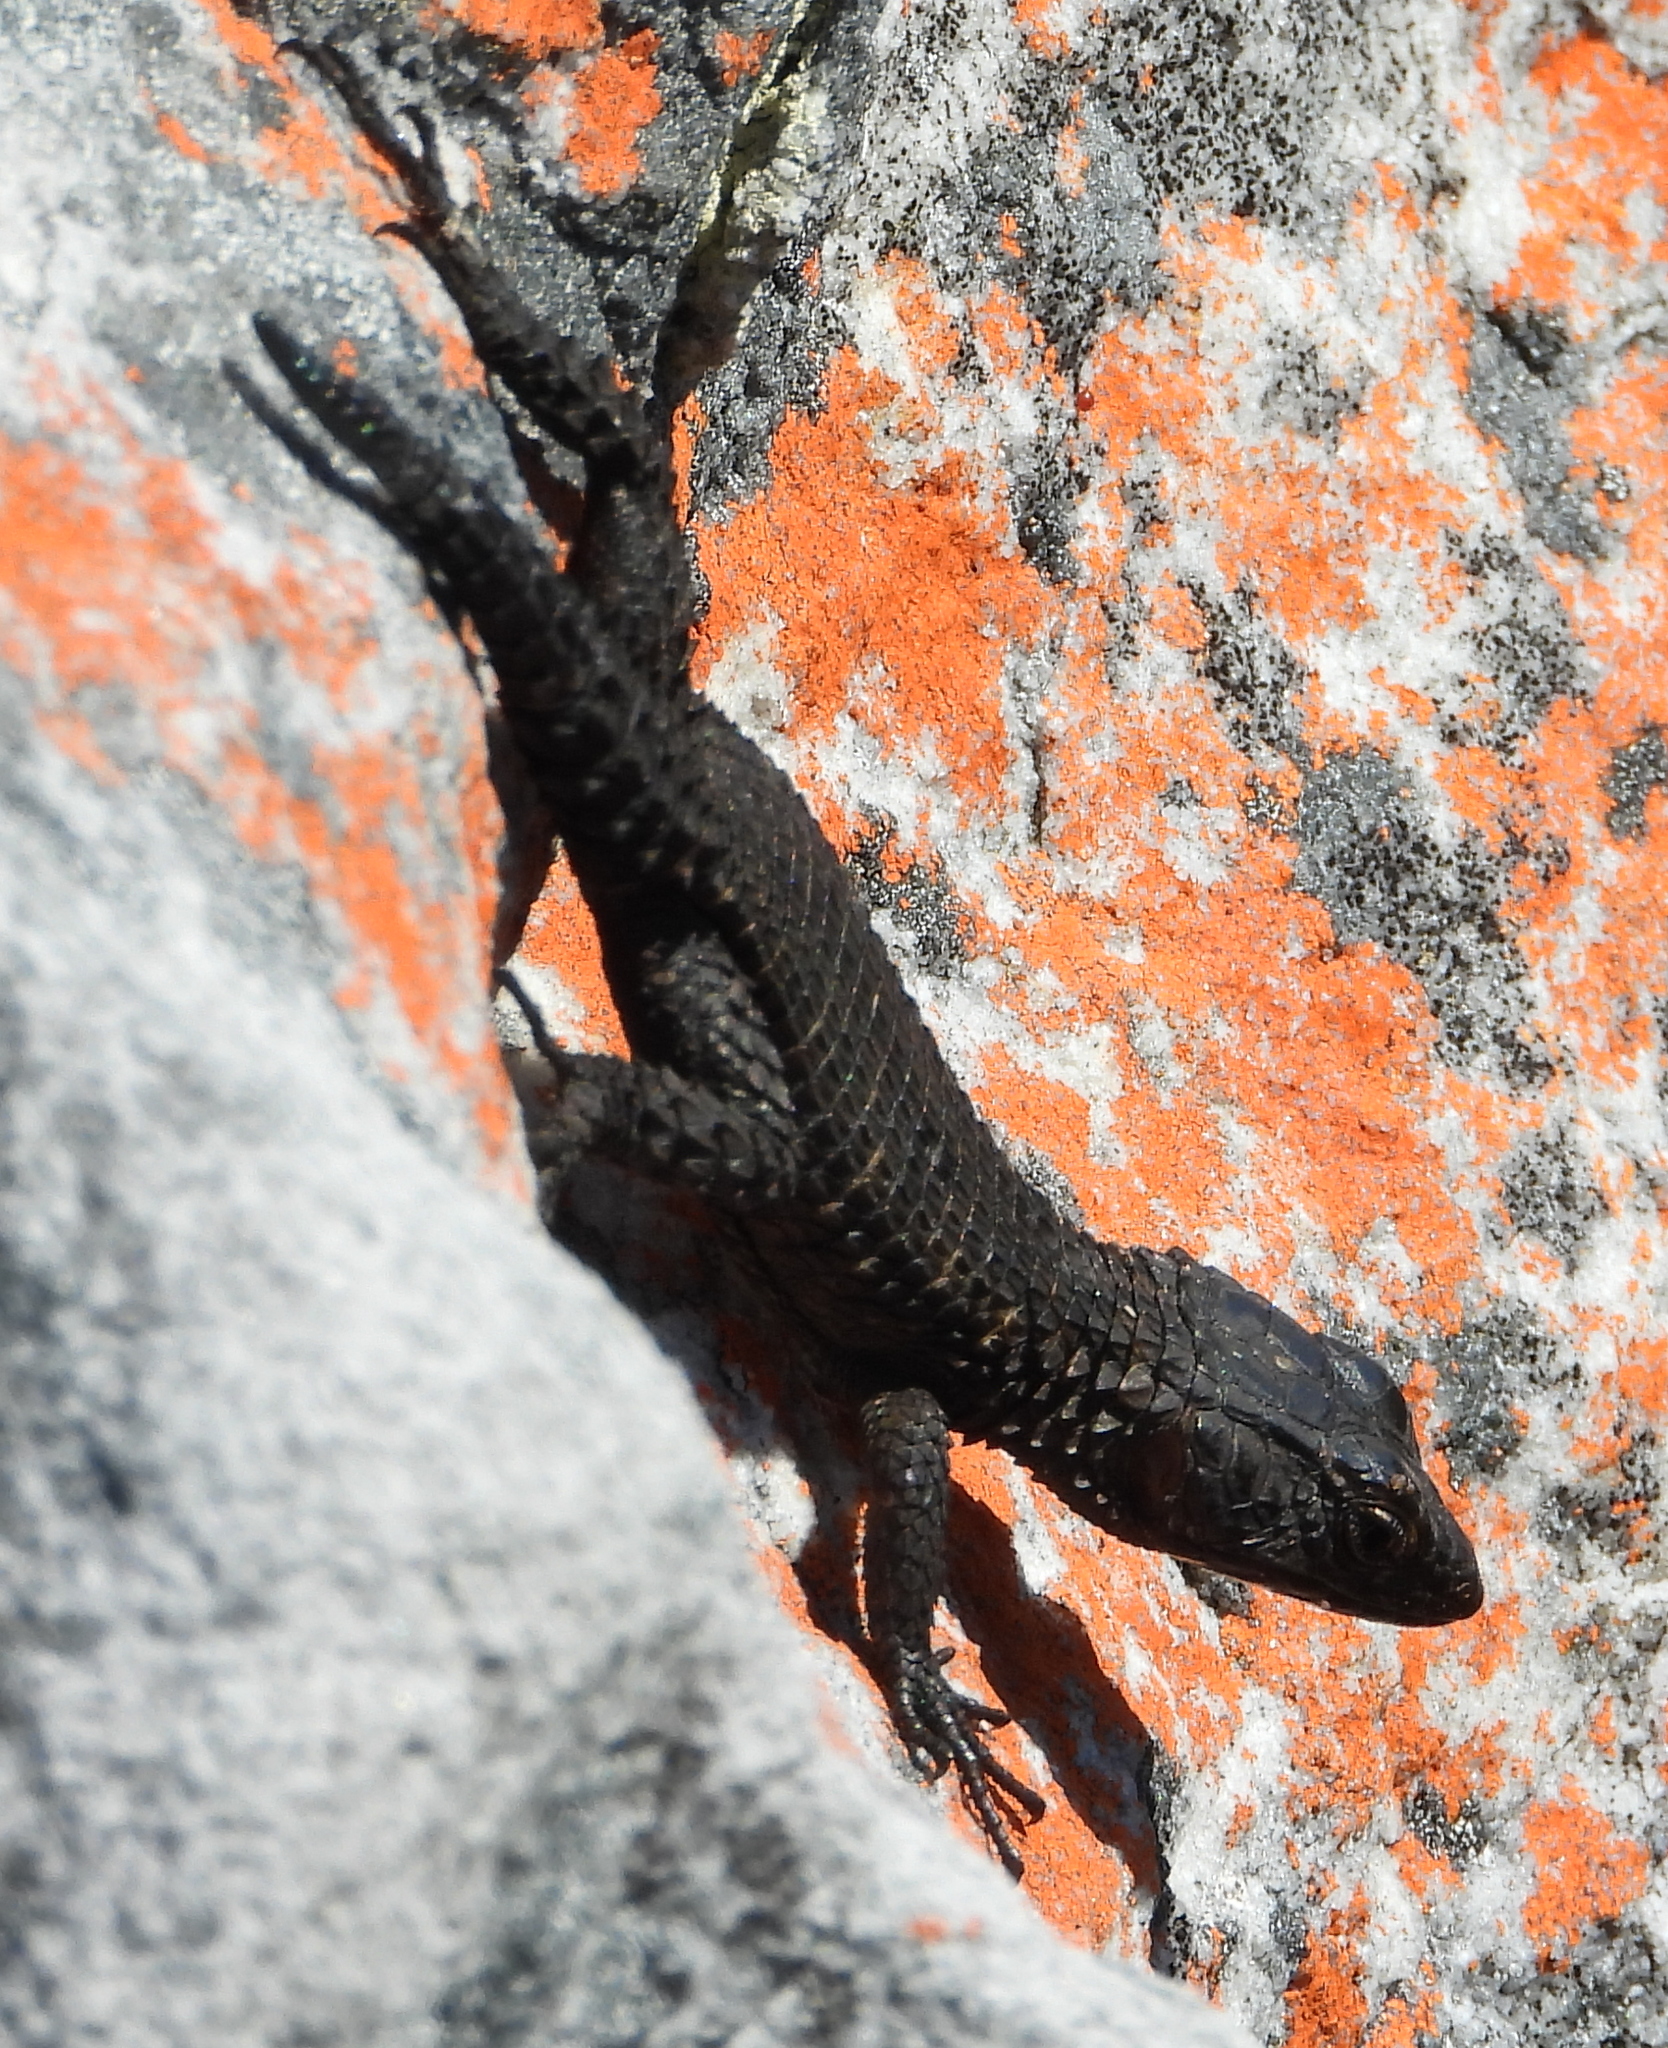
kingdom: Animalia
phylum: Chordata
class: Squamata
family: Cordylidae
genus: Cordylus
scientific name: Cordylus niger
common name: Black girdled lizard
